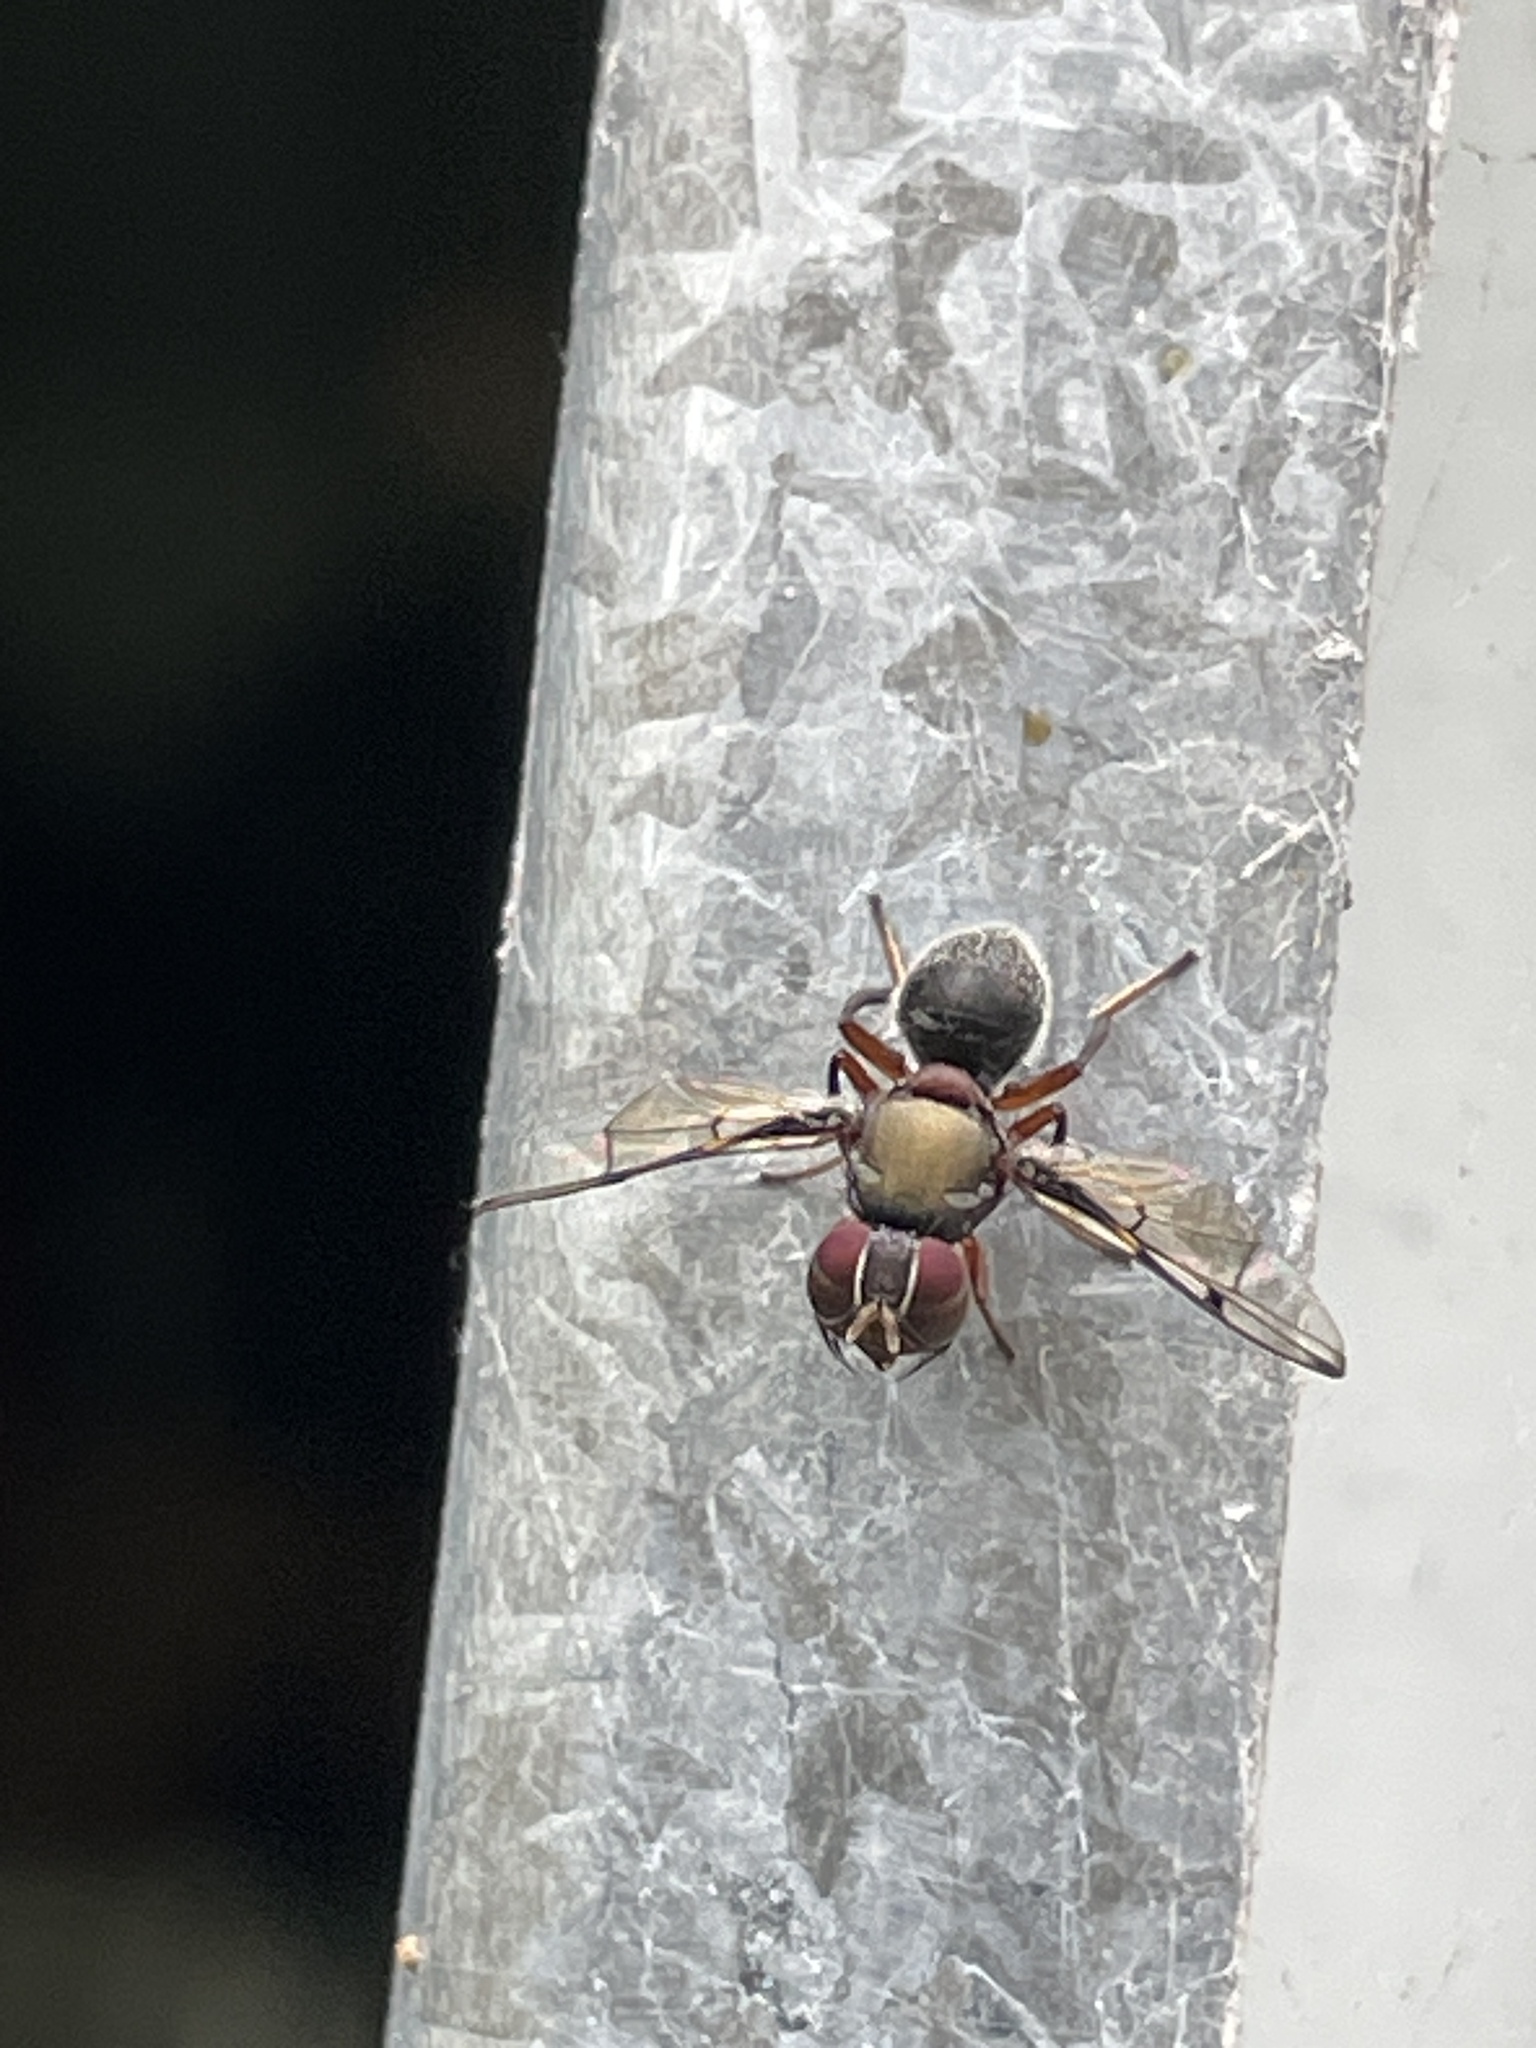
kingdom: Animalia
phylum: Arthropoda
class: Insecta
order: Diptera
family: Platystomatidae
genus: Pogonortalis
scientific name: Pogonortalis doclea
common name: Boatman fly
